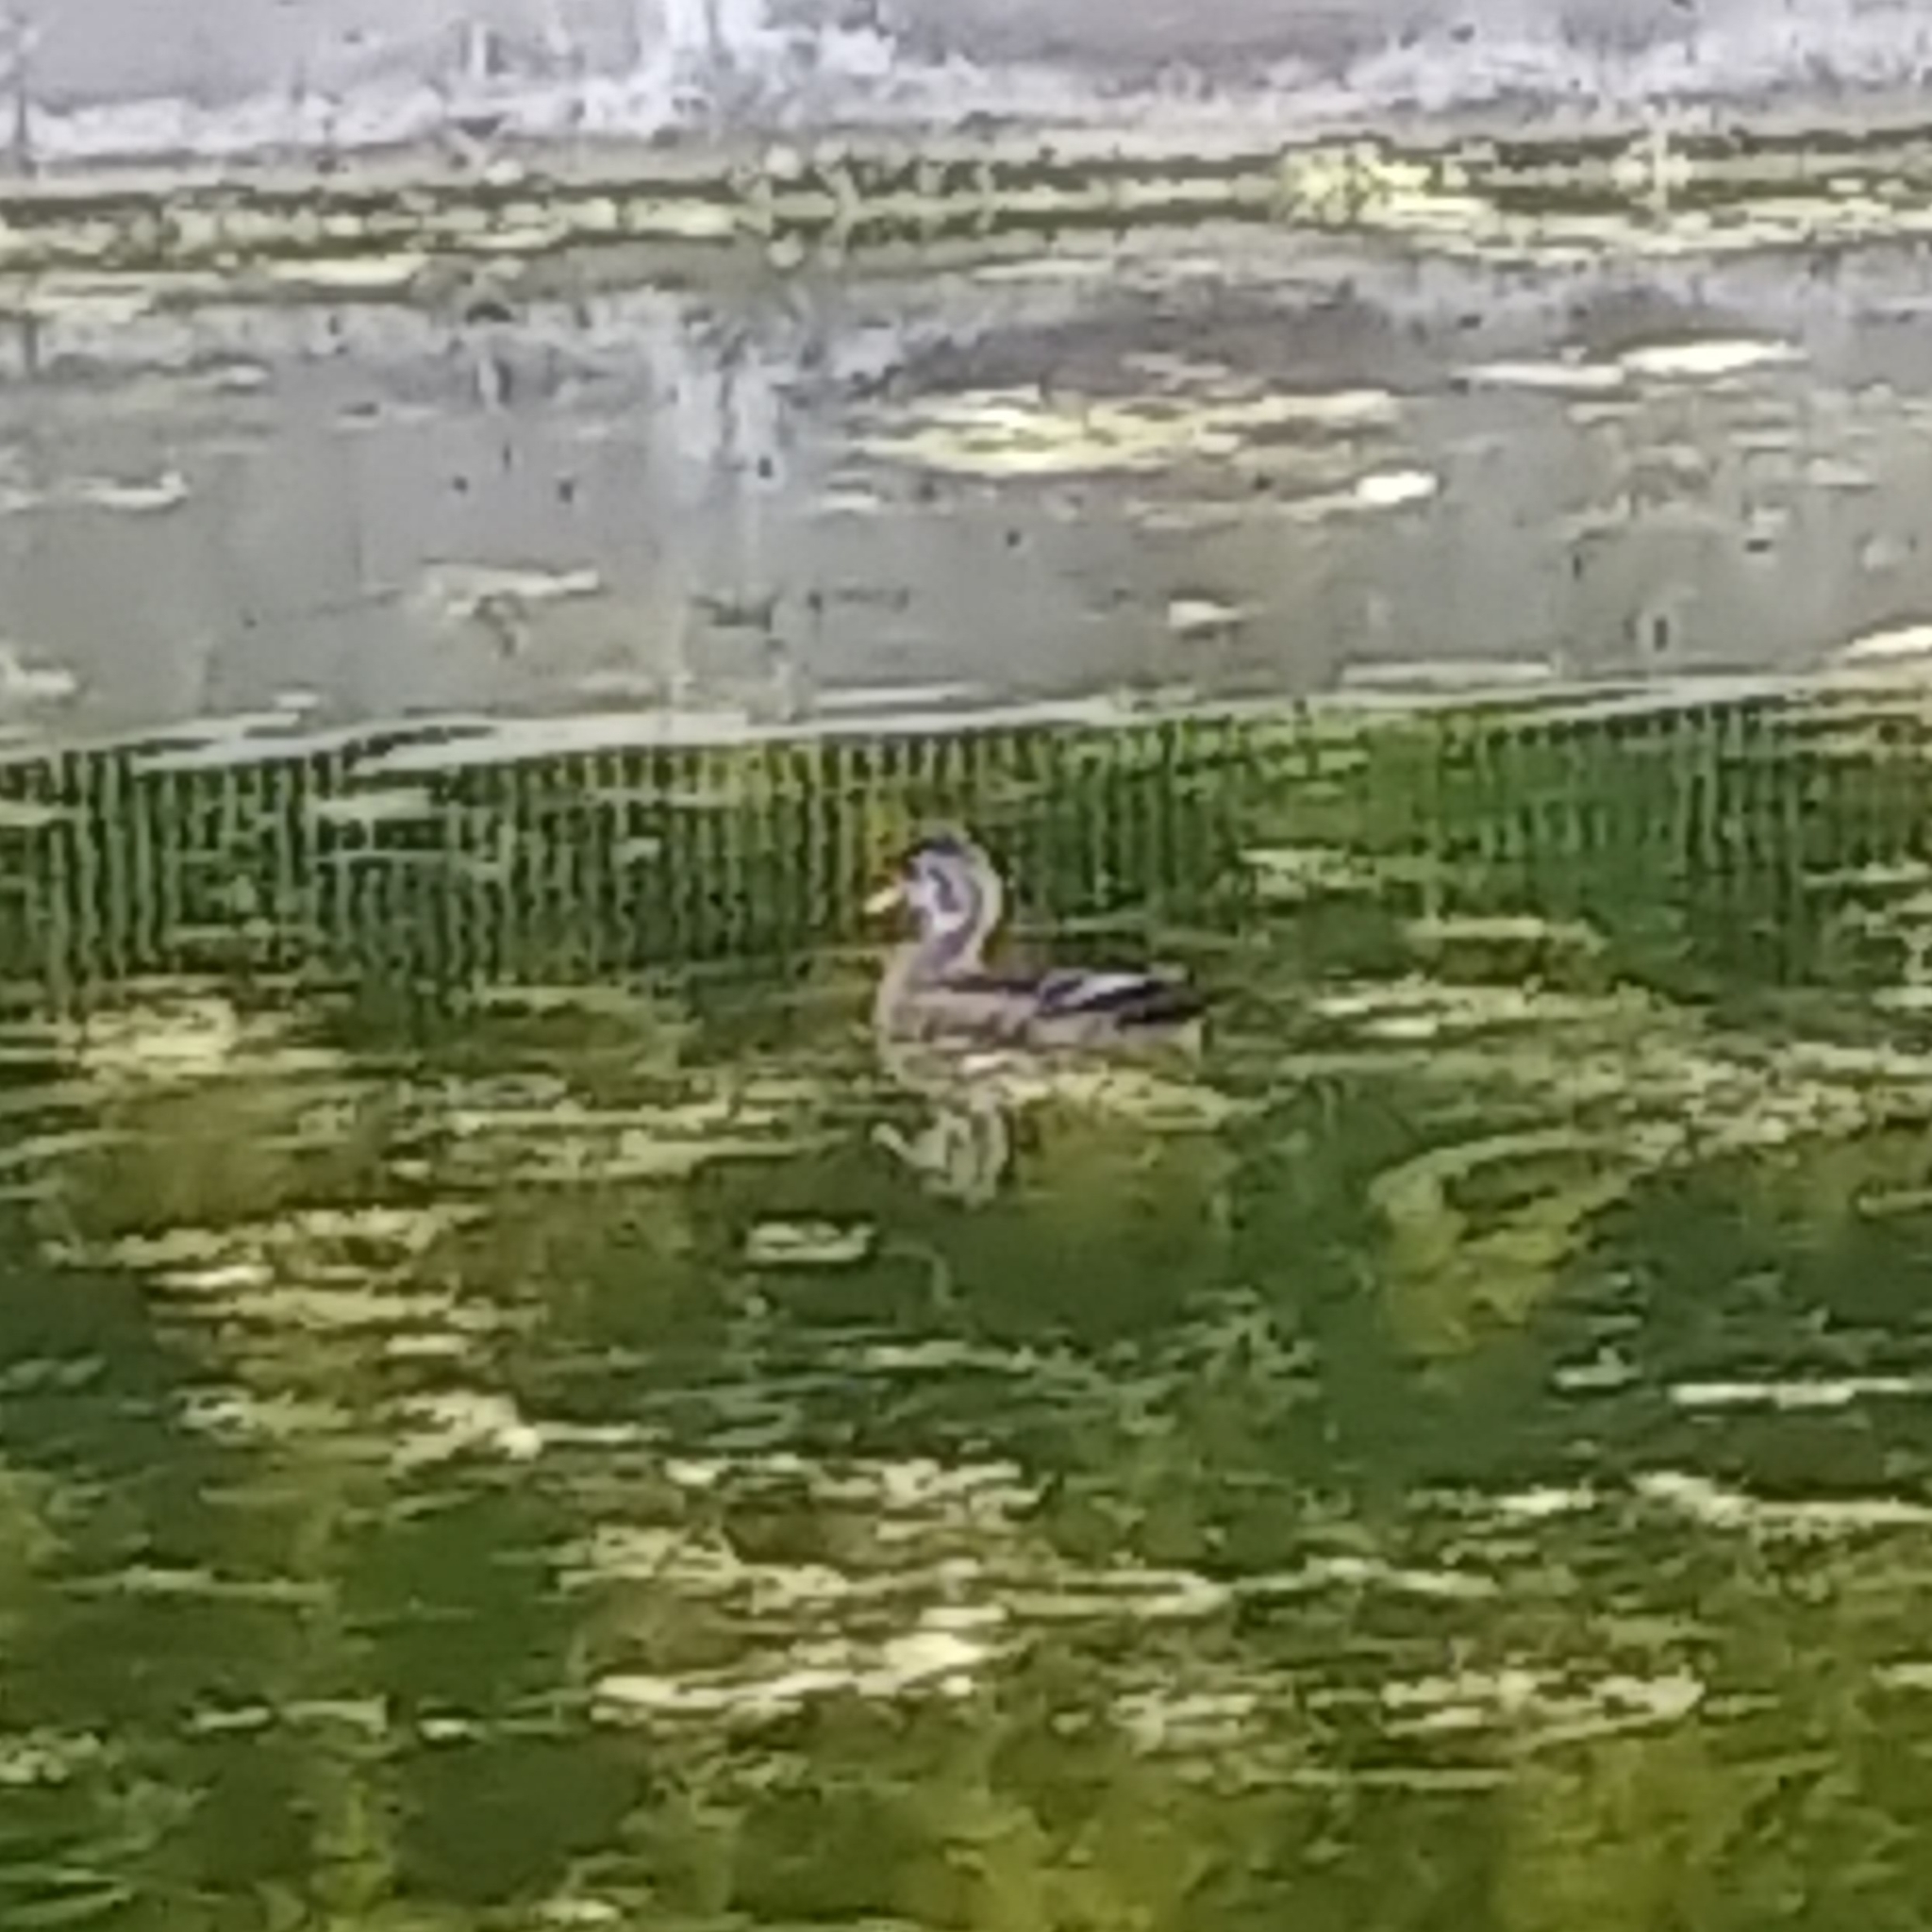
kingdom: Animalia
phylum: Chordata
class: Aves
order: Anseriformes
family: Anatidae
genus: Aix
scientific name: Aix sponsa
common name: Wood duck
